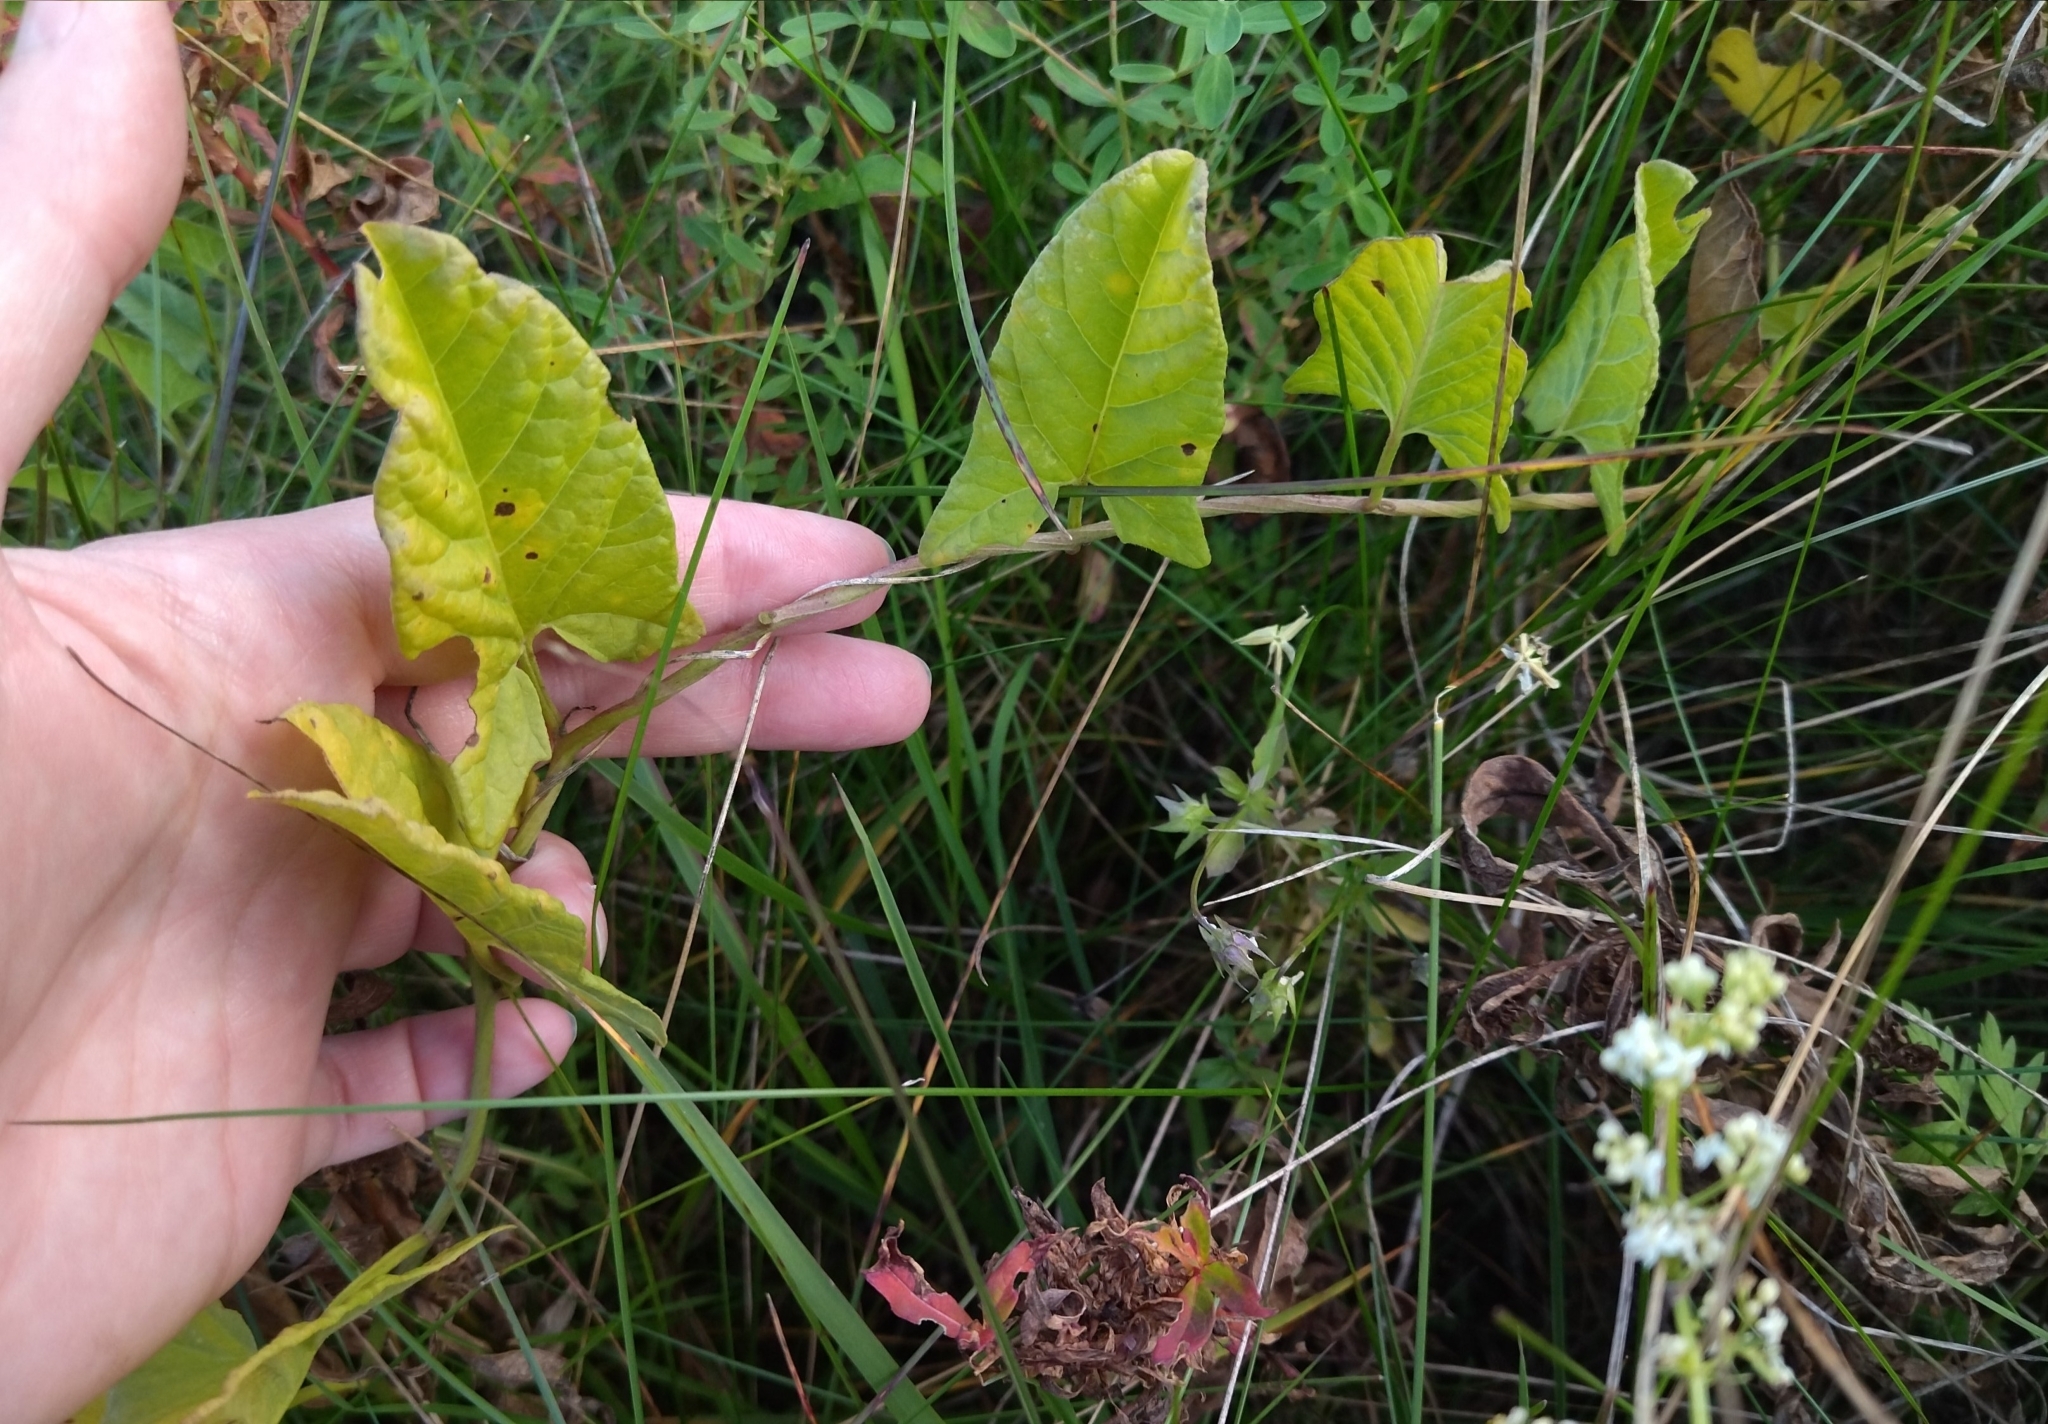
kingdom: Plantae
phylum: Tracheophyta
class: Magnoliopsida
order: Solanales
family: Convolvulaceae
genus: Convolvulus
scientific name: Convolvulus arvensis
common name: Field bindweed
